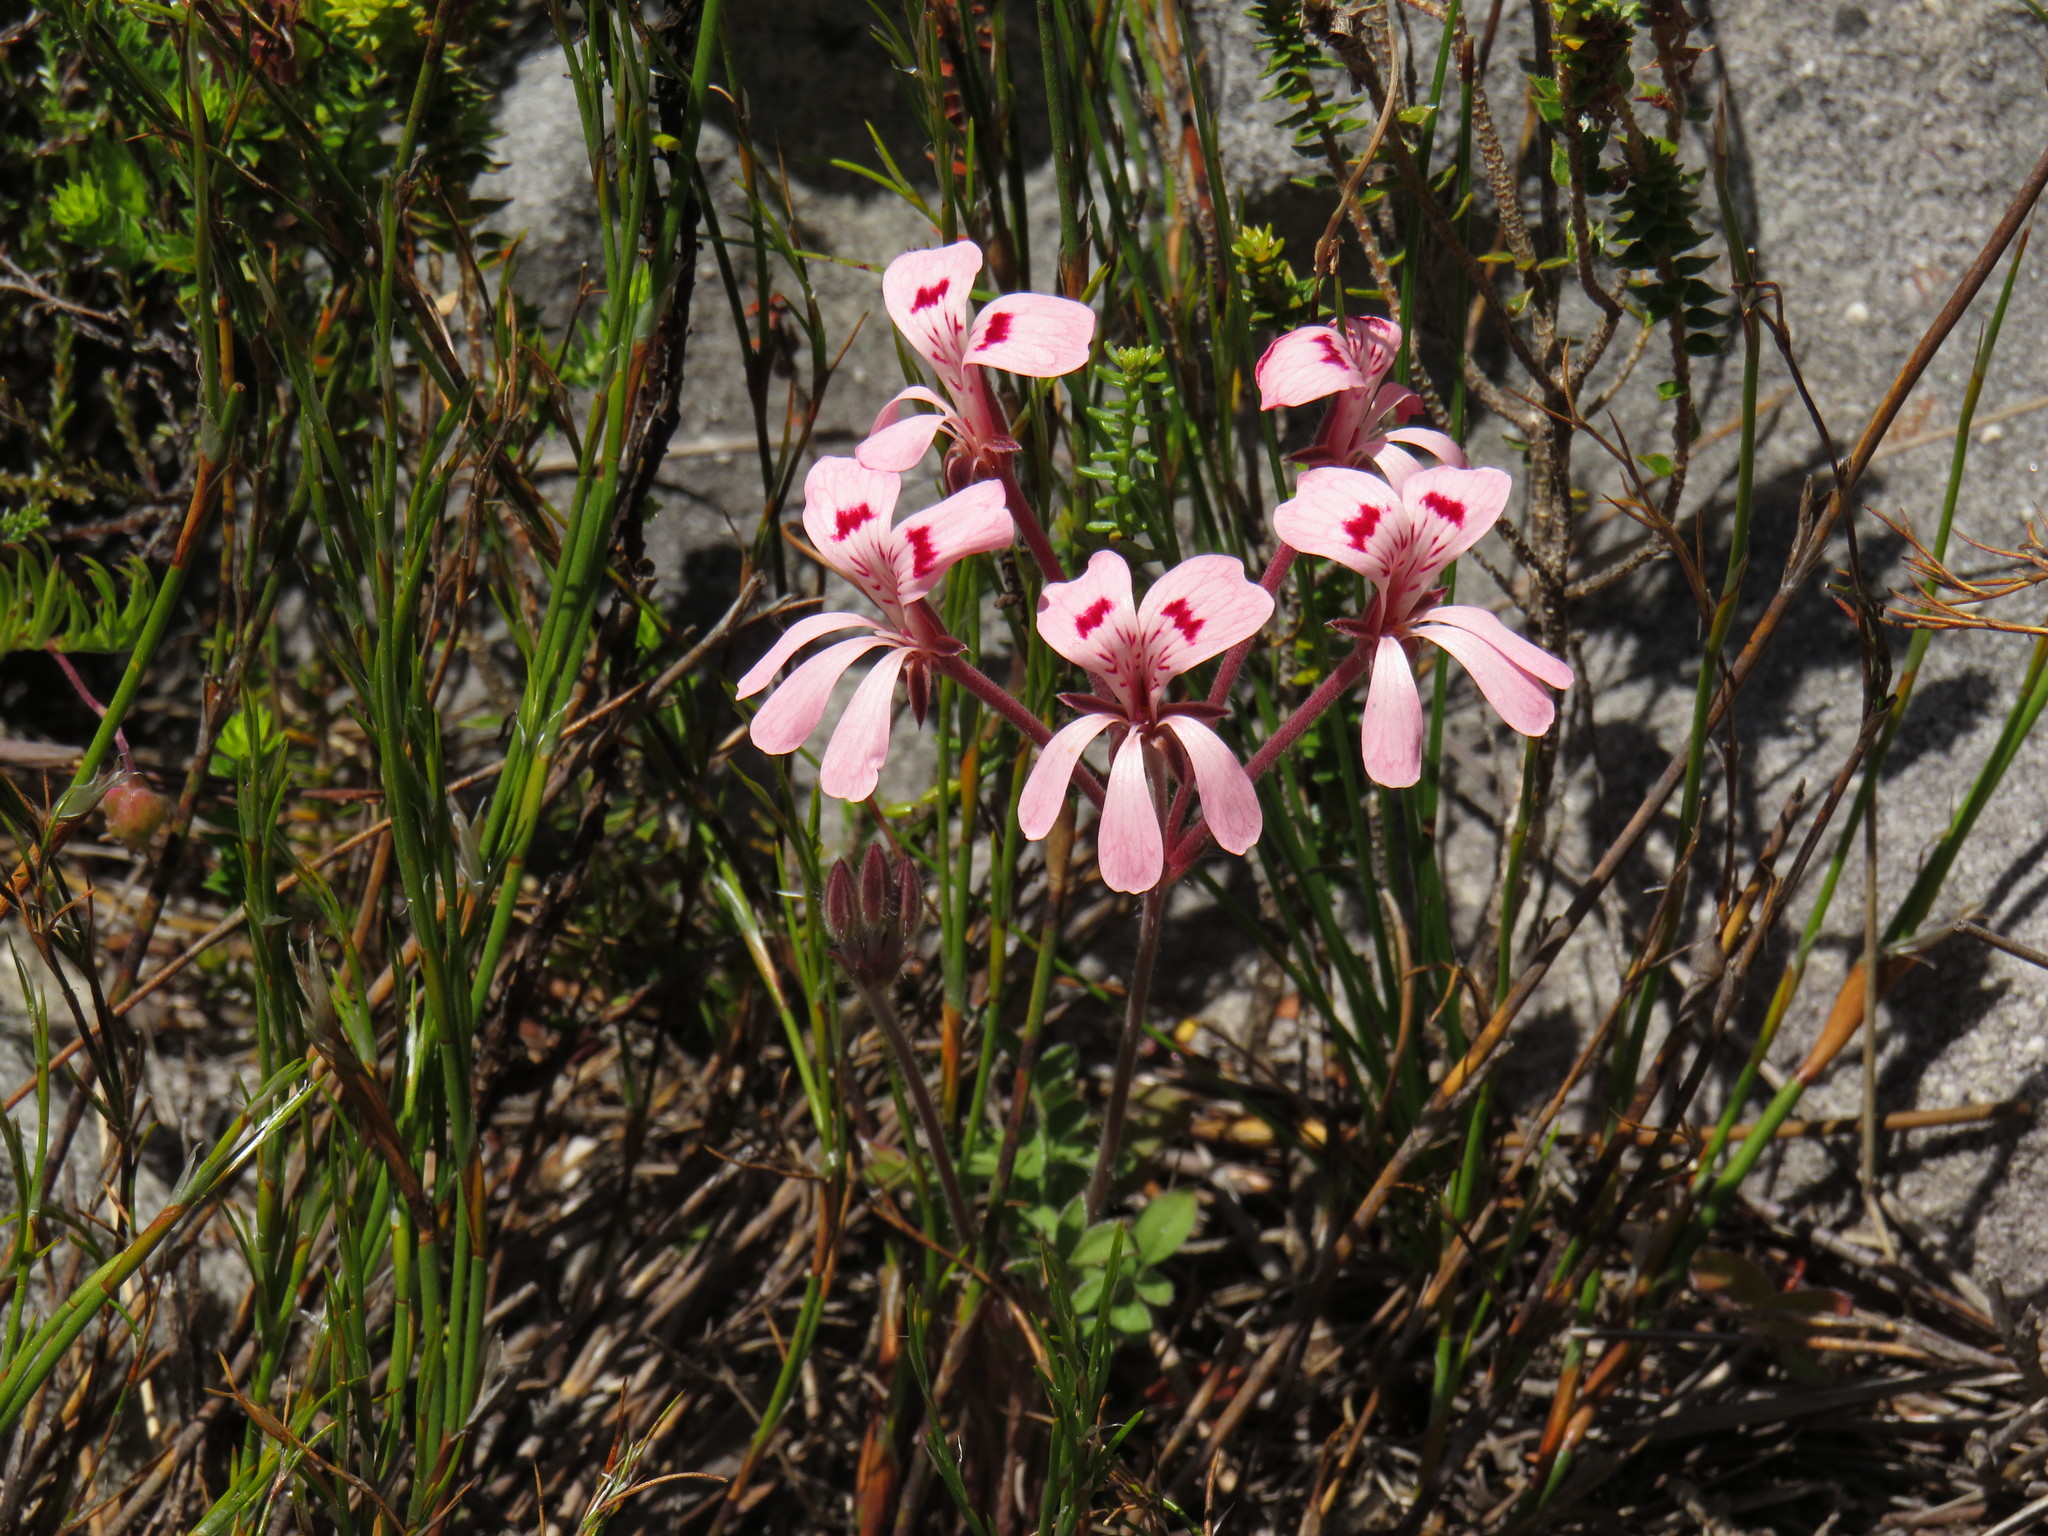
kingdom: Plantae
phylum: Tracheophyta
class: Magnoliopsida
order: Geraniales
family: Geraniaceae
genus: Pelargonium
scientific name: Pelargonium pinnatum
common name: Pinnated pelargonium
